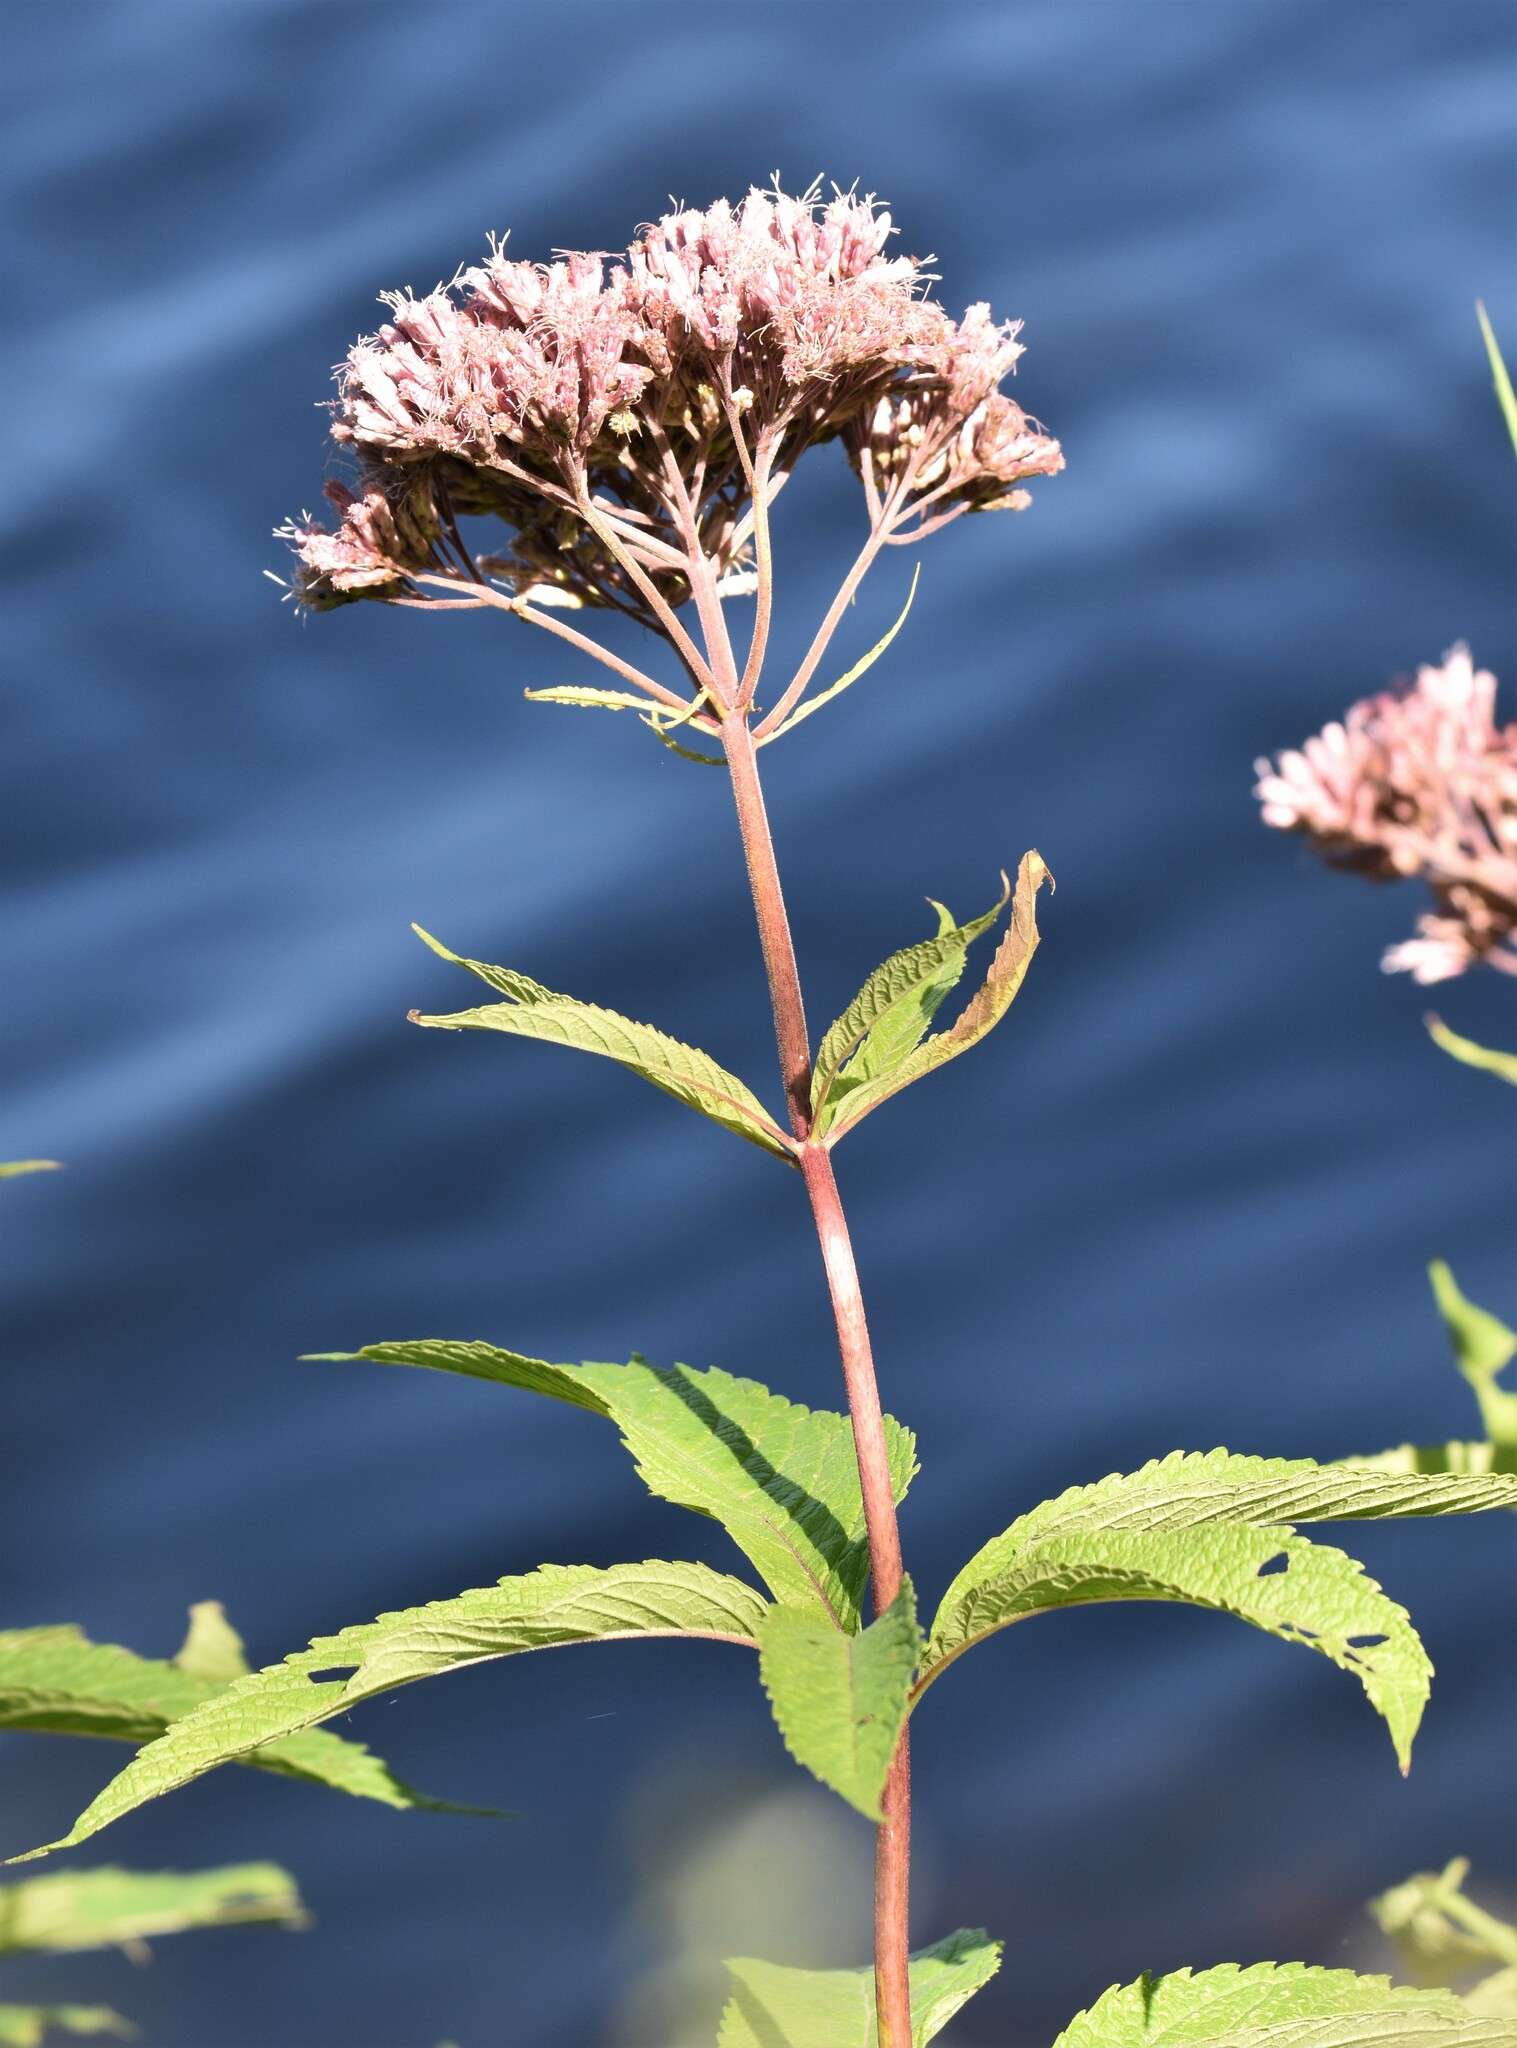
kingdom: Plantae
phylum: Tracheophyta
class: Magnoliopsida
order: Asterales
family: Asteraceae
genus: Eutrochium
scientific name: Eutrochium maculatum
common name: Spotted joe pye weed
